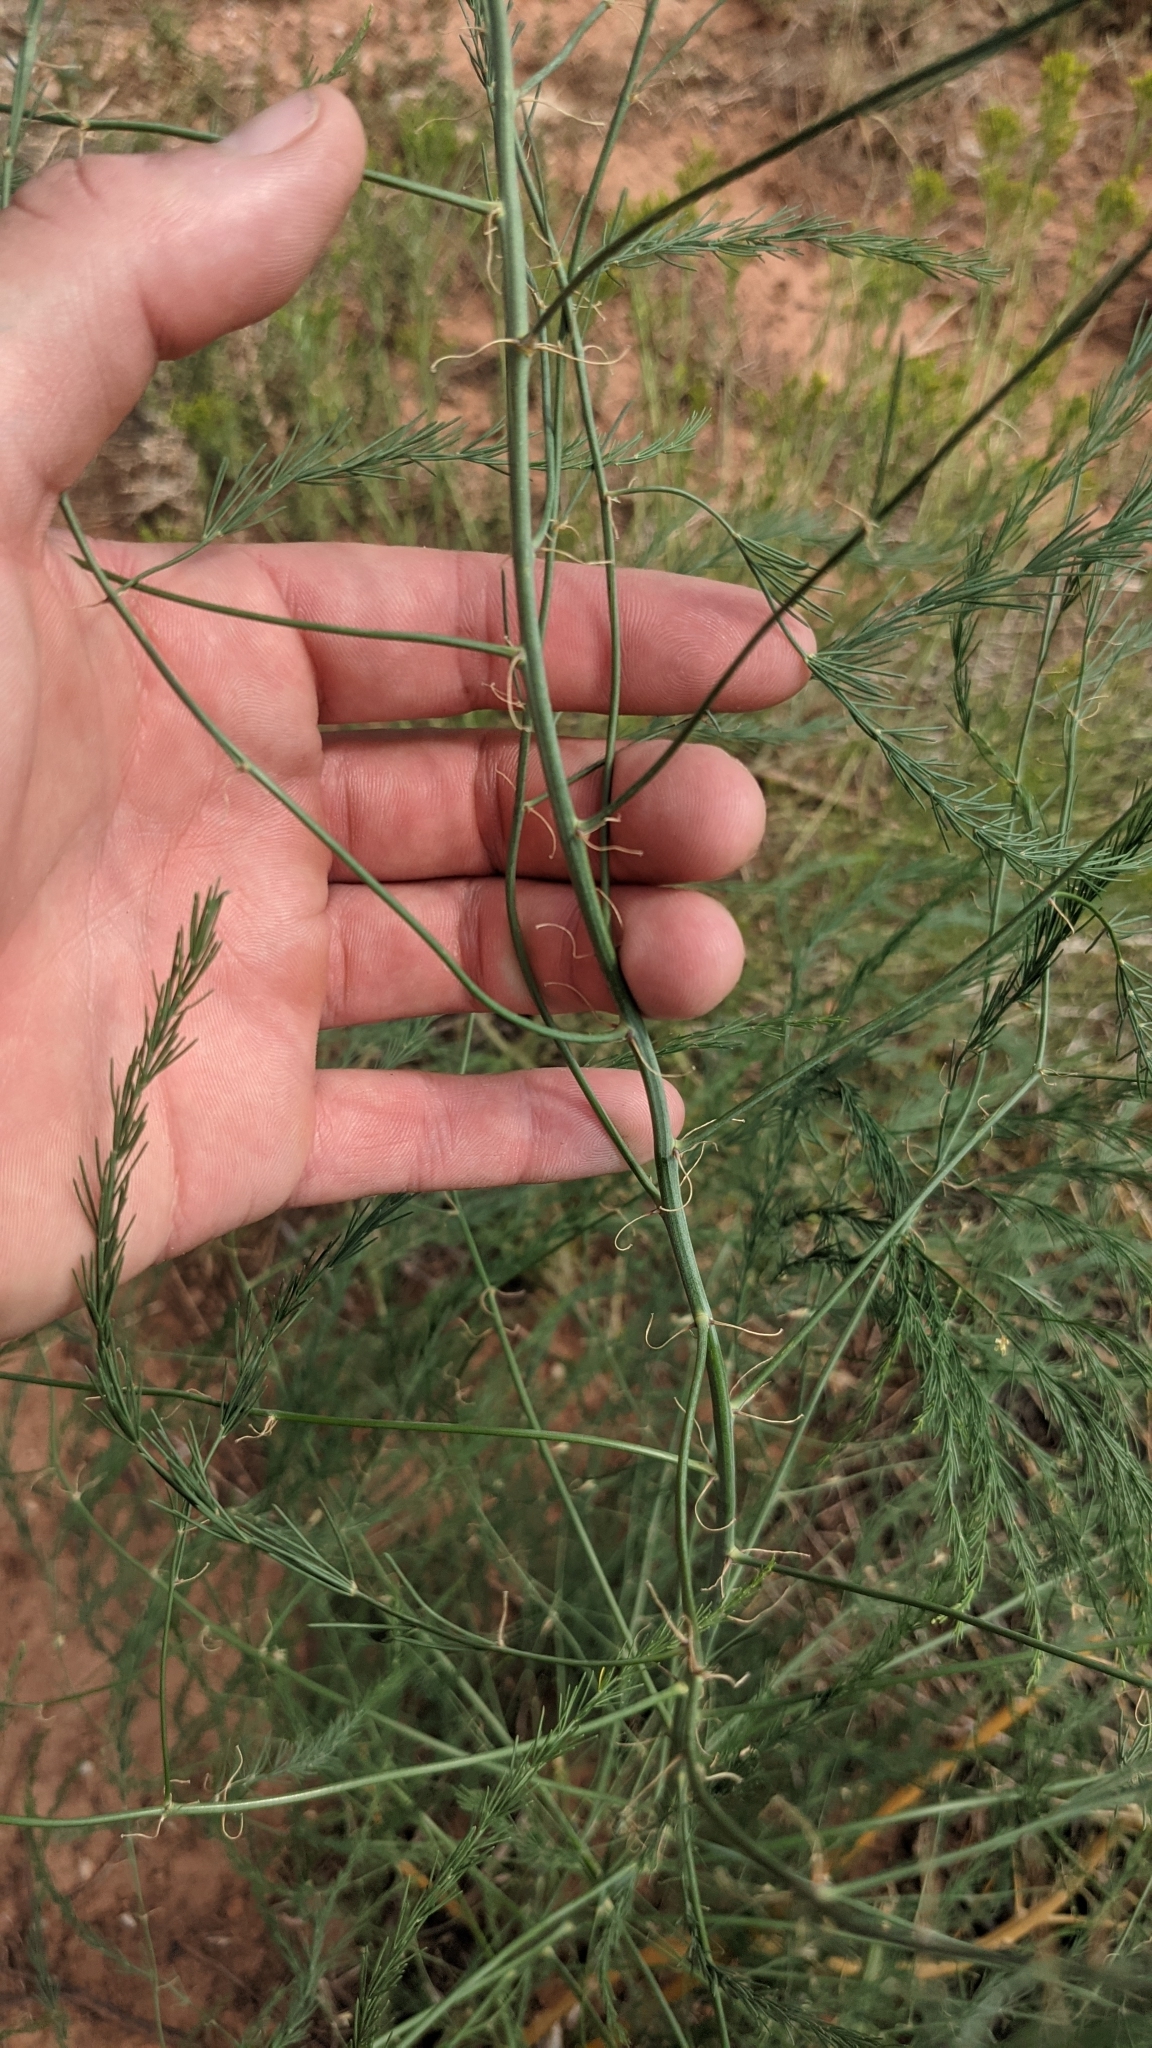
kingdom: Plantae
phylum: Tracheophyta
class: Liliopsida
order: Asparagales
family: Asparagaceae
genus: Asparagus
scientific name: Asparagus officinalis
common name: Garden asparagus
